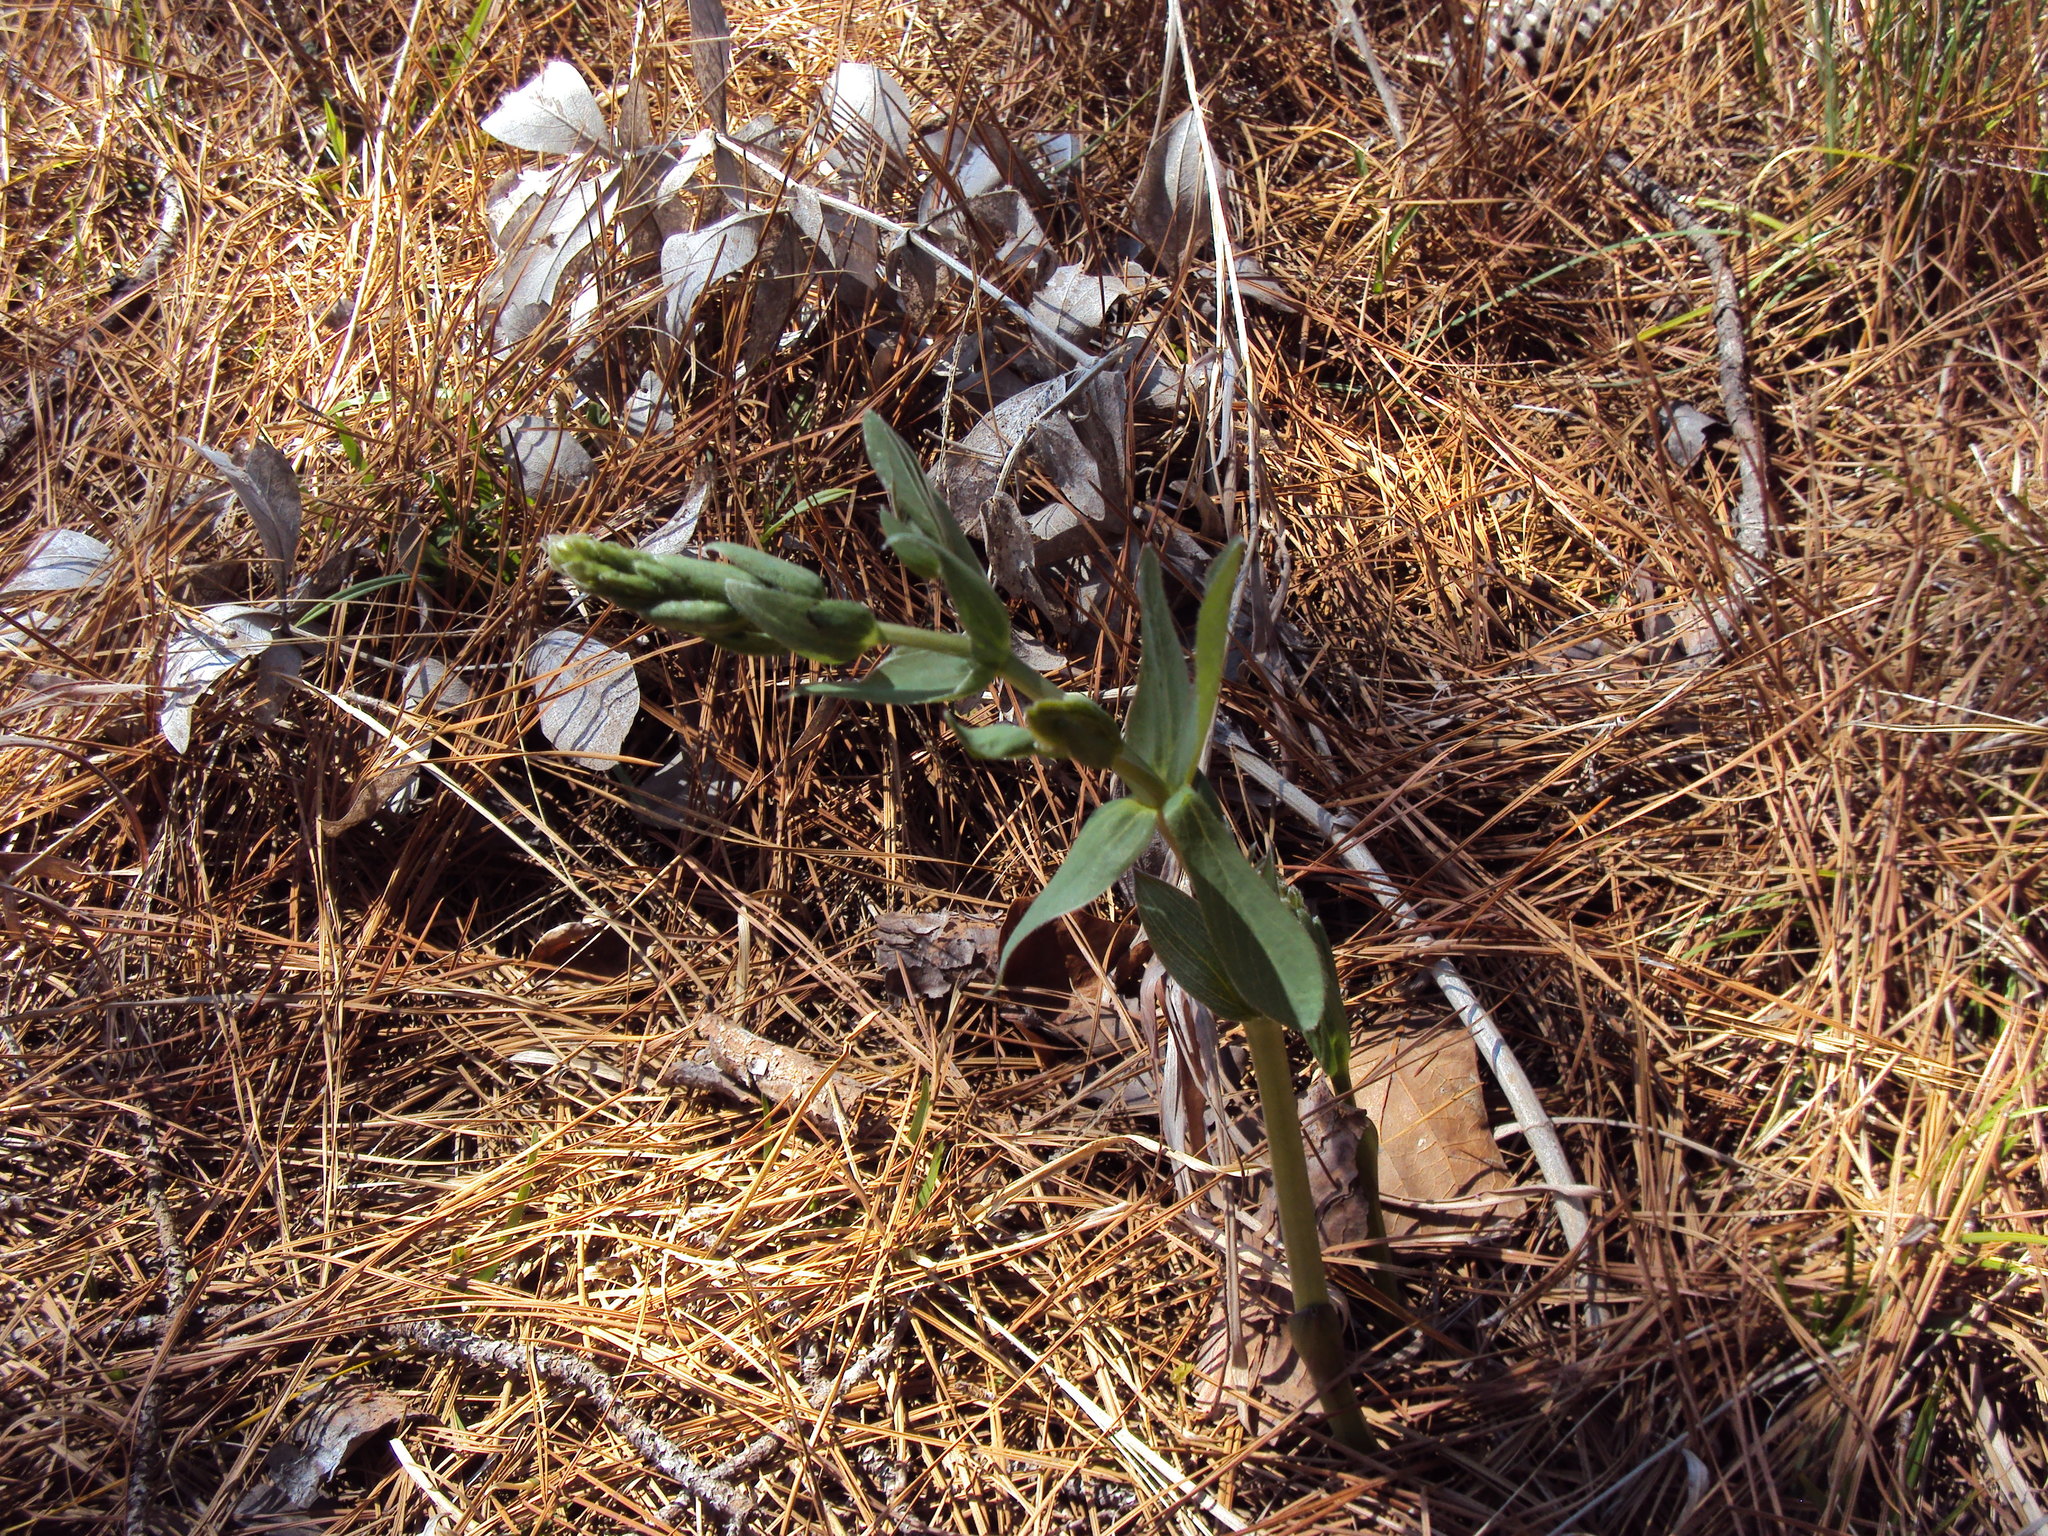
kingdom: Plantae
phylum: Tracheophyta
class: Magnoliopsida
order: Fabales
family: Fabaceae
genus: Baptisia
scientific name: Baptisia bracteata
